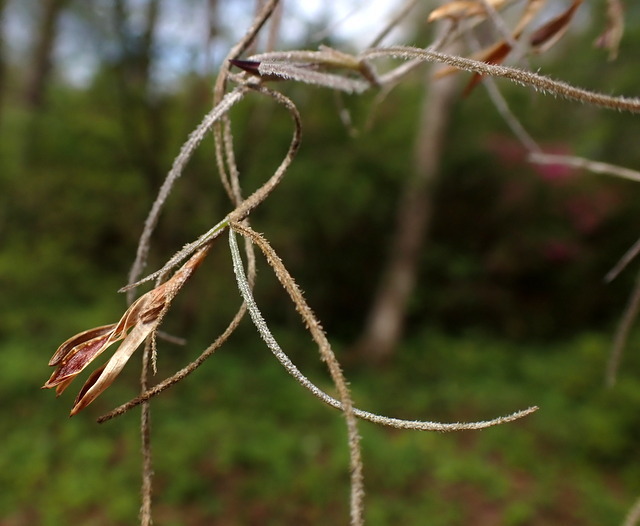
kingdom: Plantae
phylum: Tracheophyta
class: Liliopsida
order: Poales
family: Bromeliaceae
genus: Tillandsia
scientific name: Tillandsia usneoides
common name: Spanish moss
